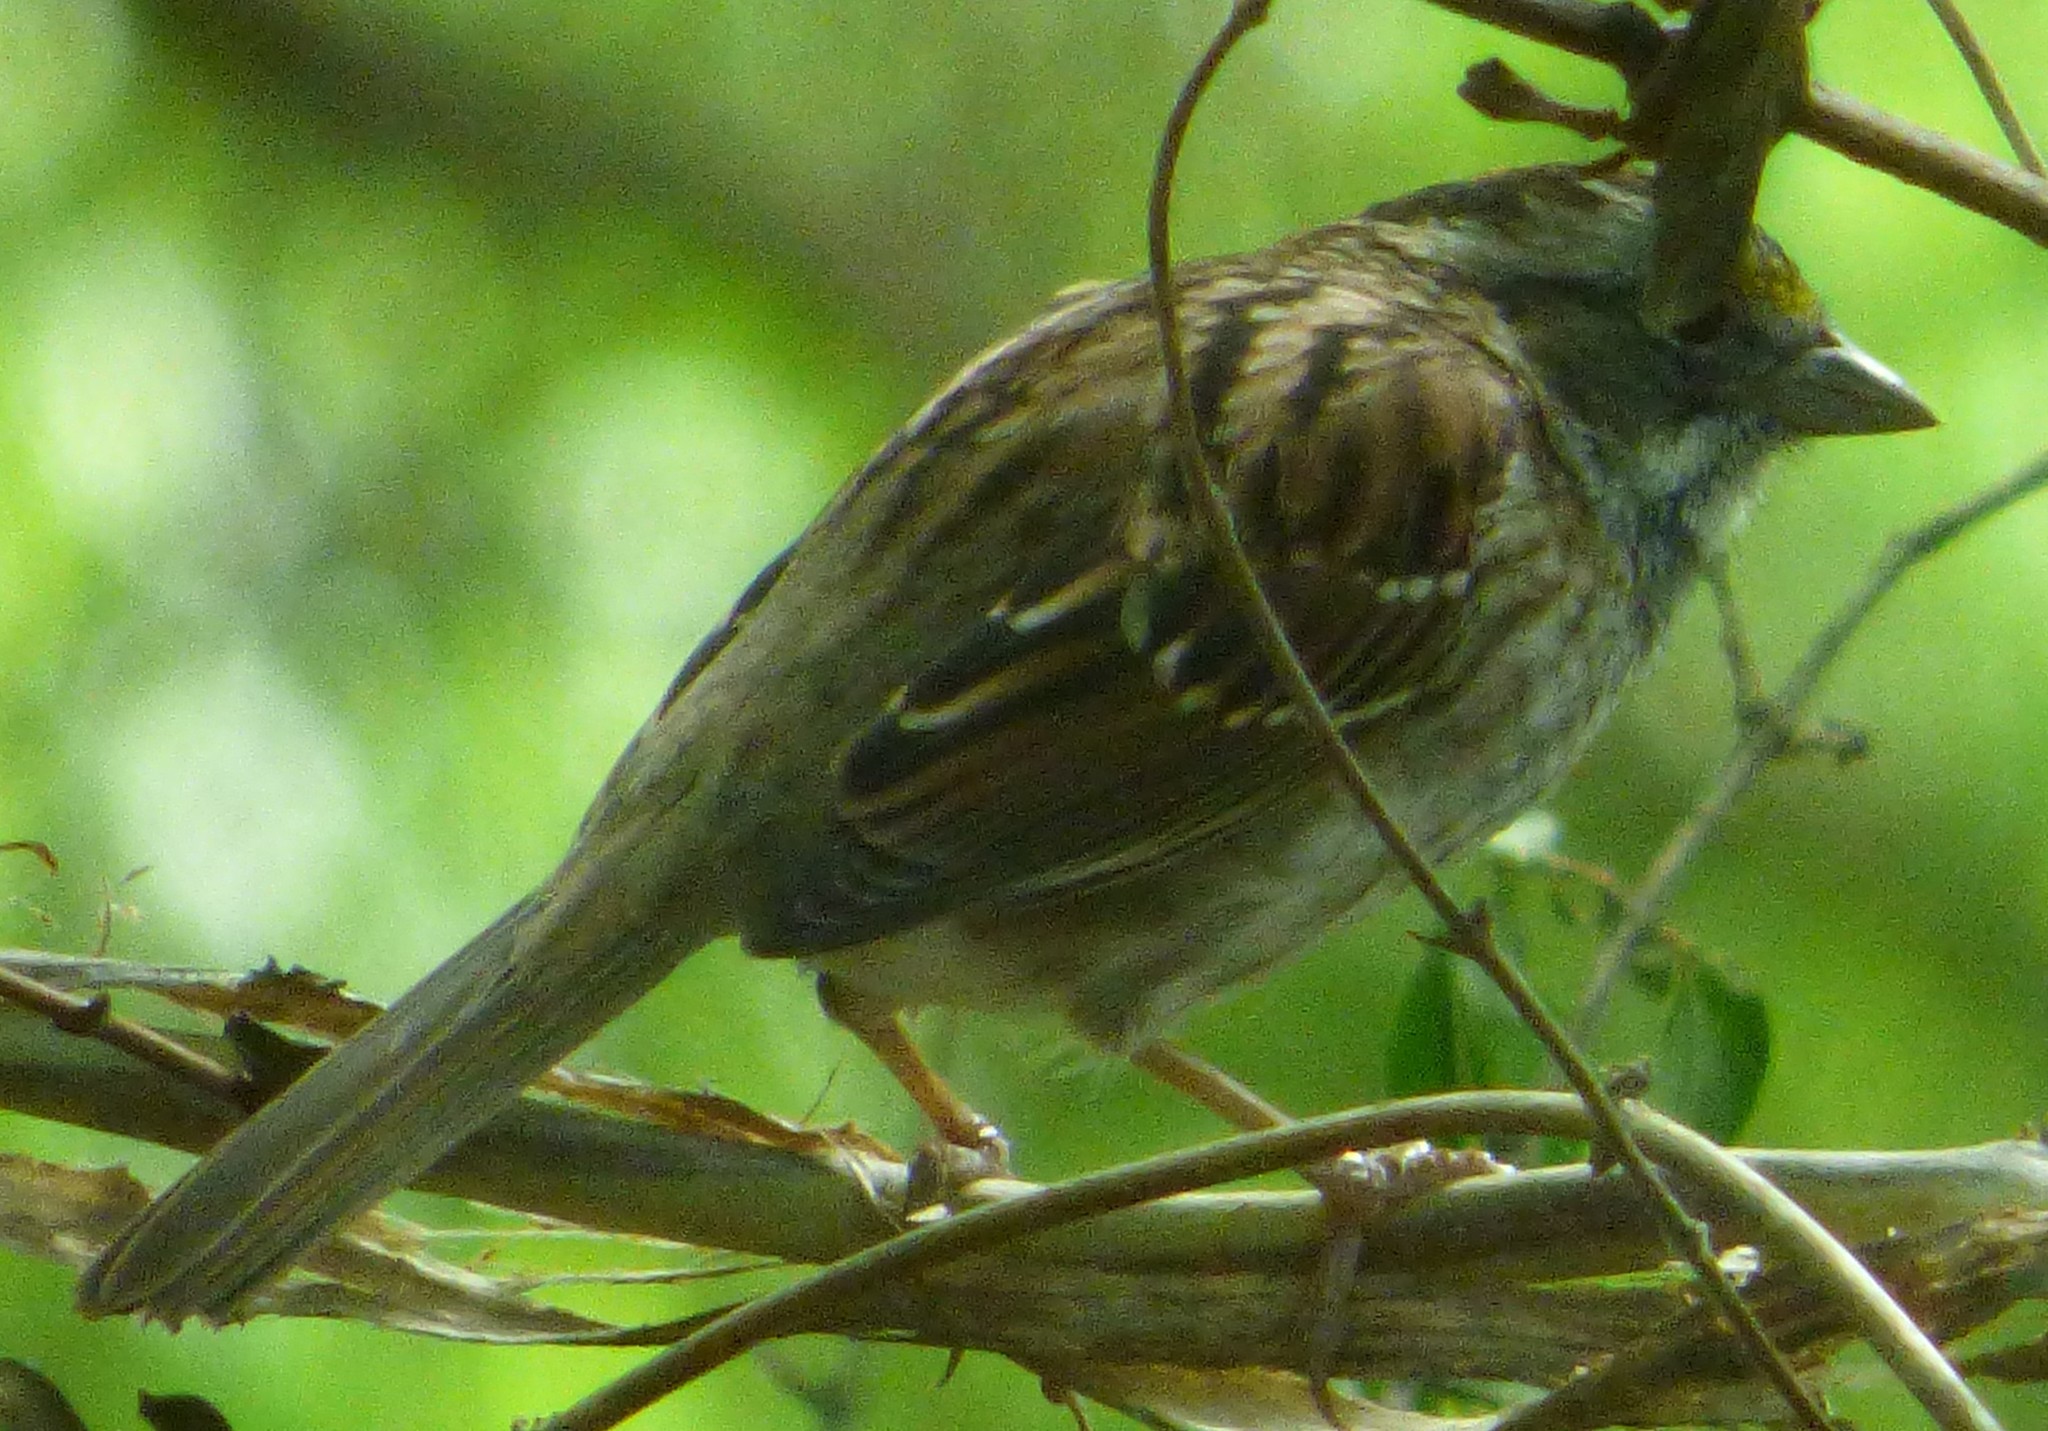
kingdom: Animalia
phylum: Chordata
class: Aves
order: Passeriformes
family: Passerellidae
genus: Zonotrichia
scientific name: Zonotrichia albicollis
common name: White-throated sparrow
